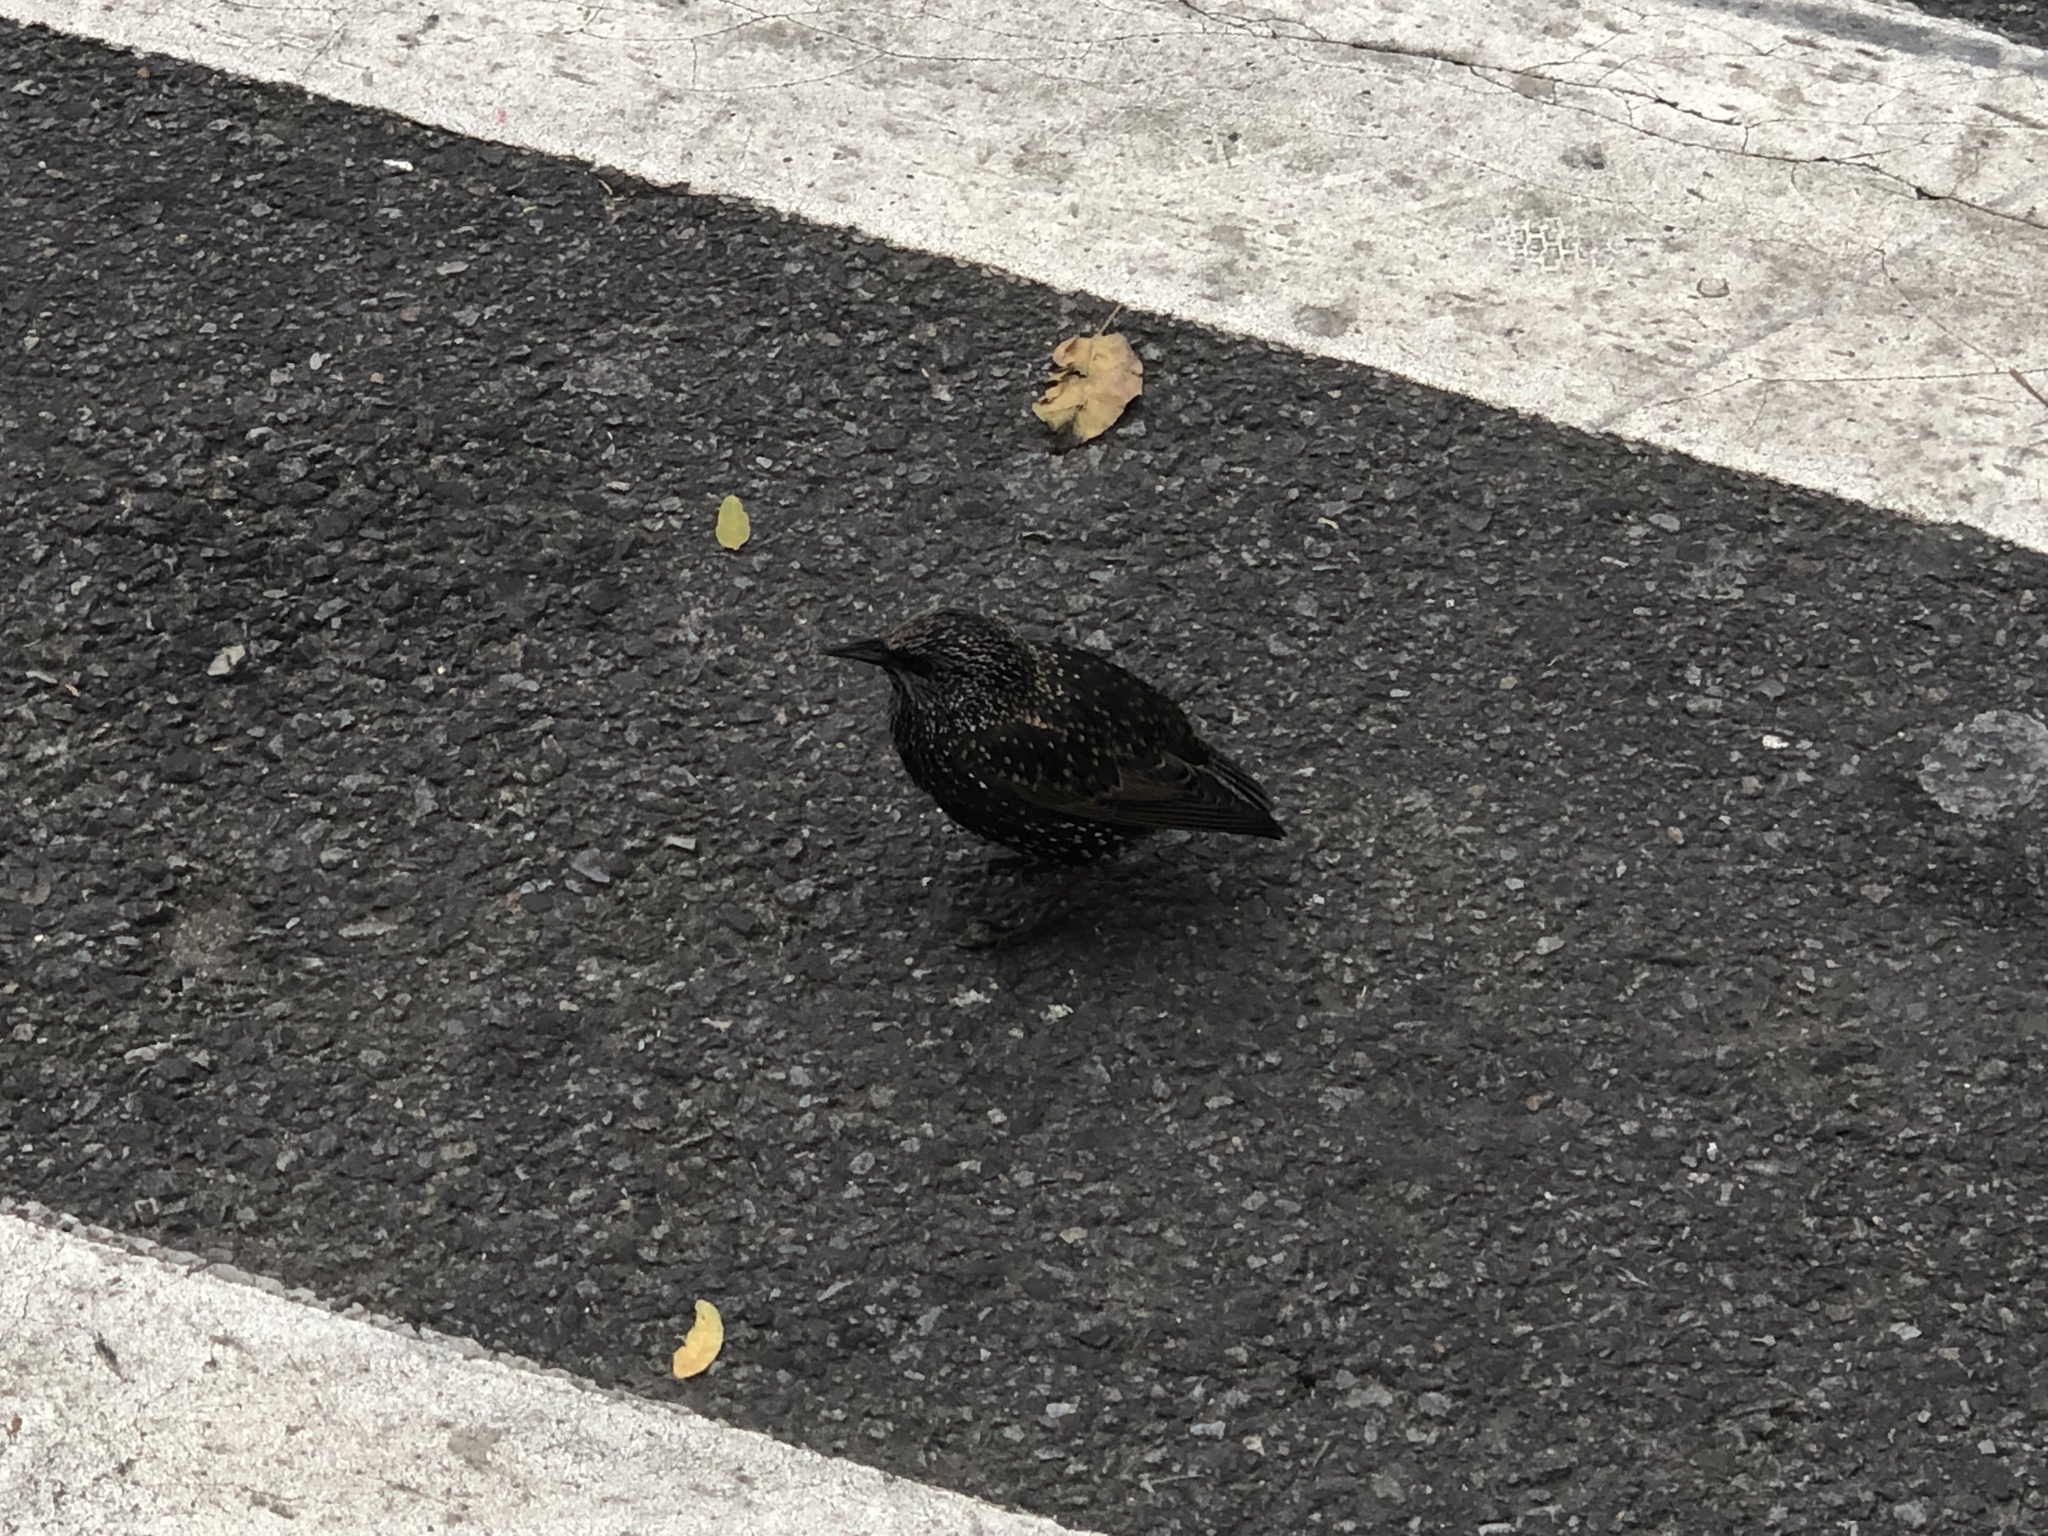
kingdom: Animalia
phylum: Chordata
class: Aves
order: Passeriformes
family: Sturnidae
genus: Sturnus
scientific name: Sturnus vulgaris
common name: Common starling
